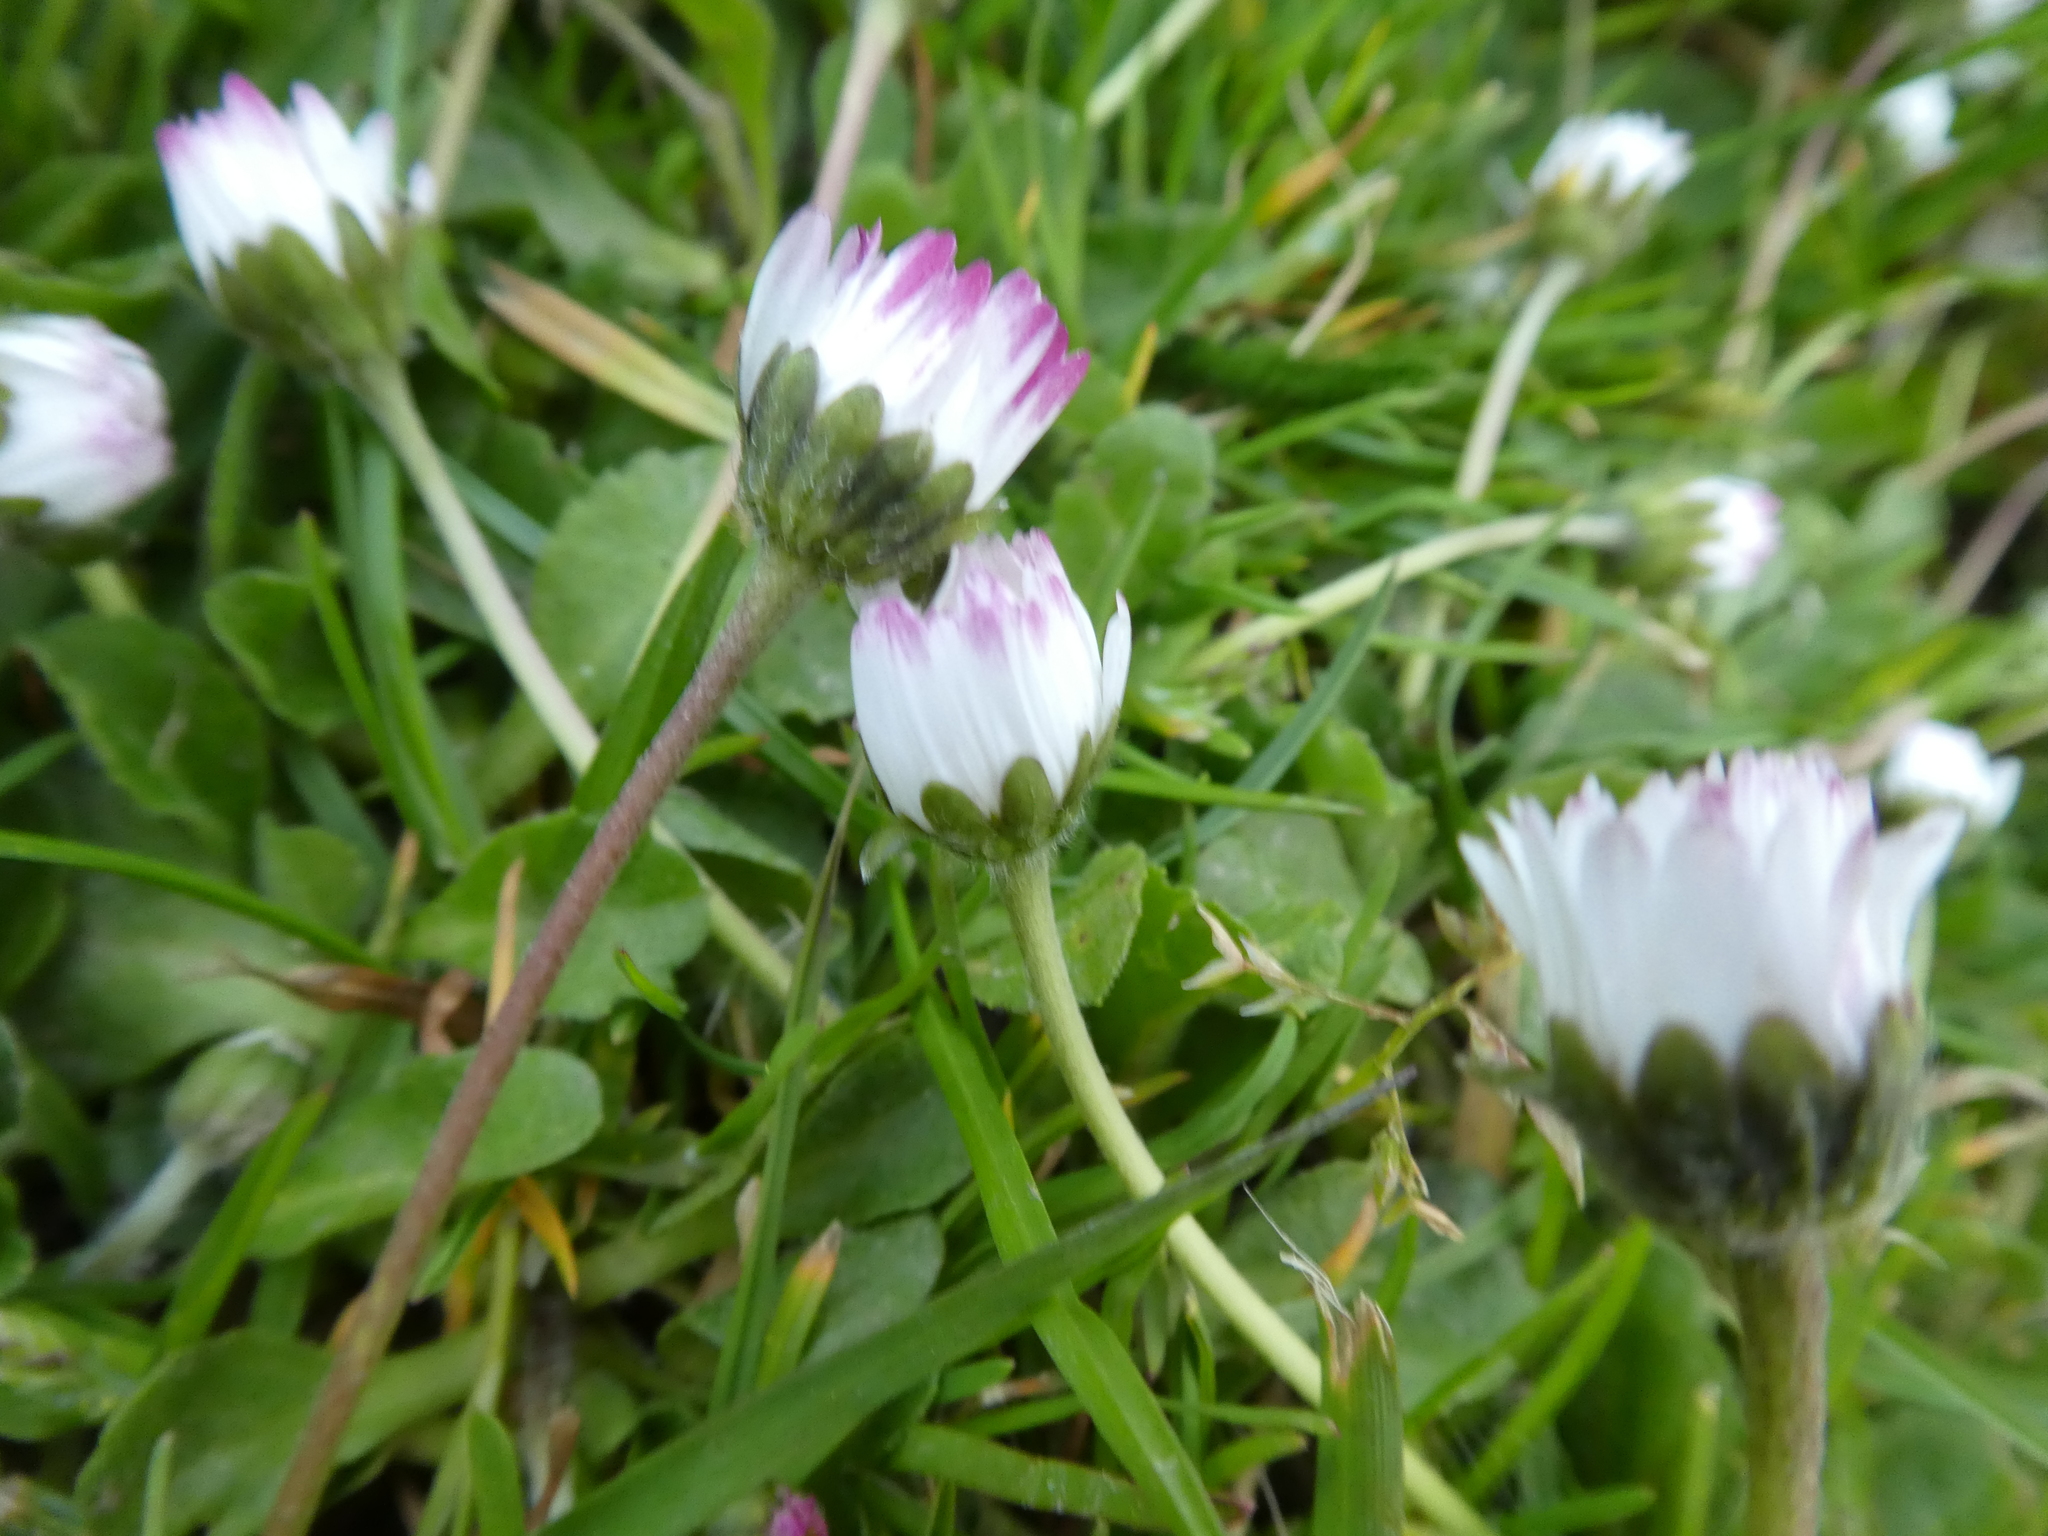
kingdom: Plantae
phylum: Tracheophyta
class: Magnoliopsida
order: Asterales
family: Asteraceae
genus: Bellis
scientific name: Bellis perennis
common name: Lawndaisy
